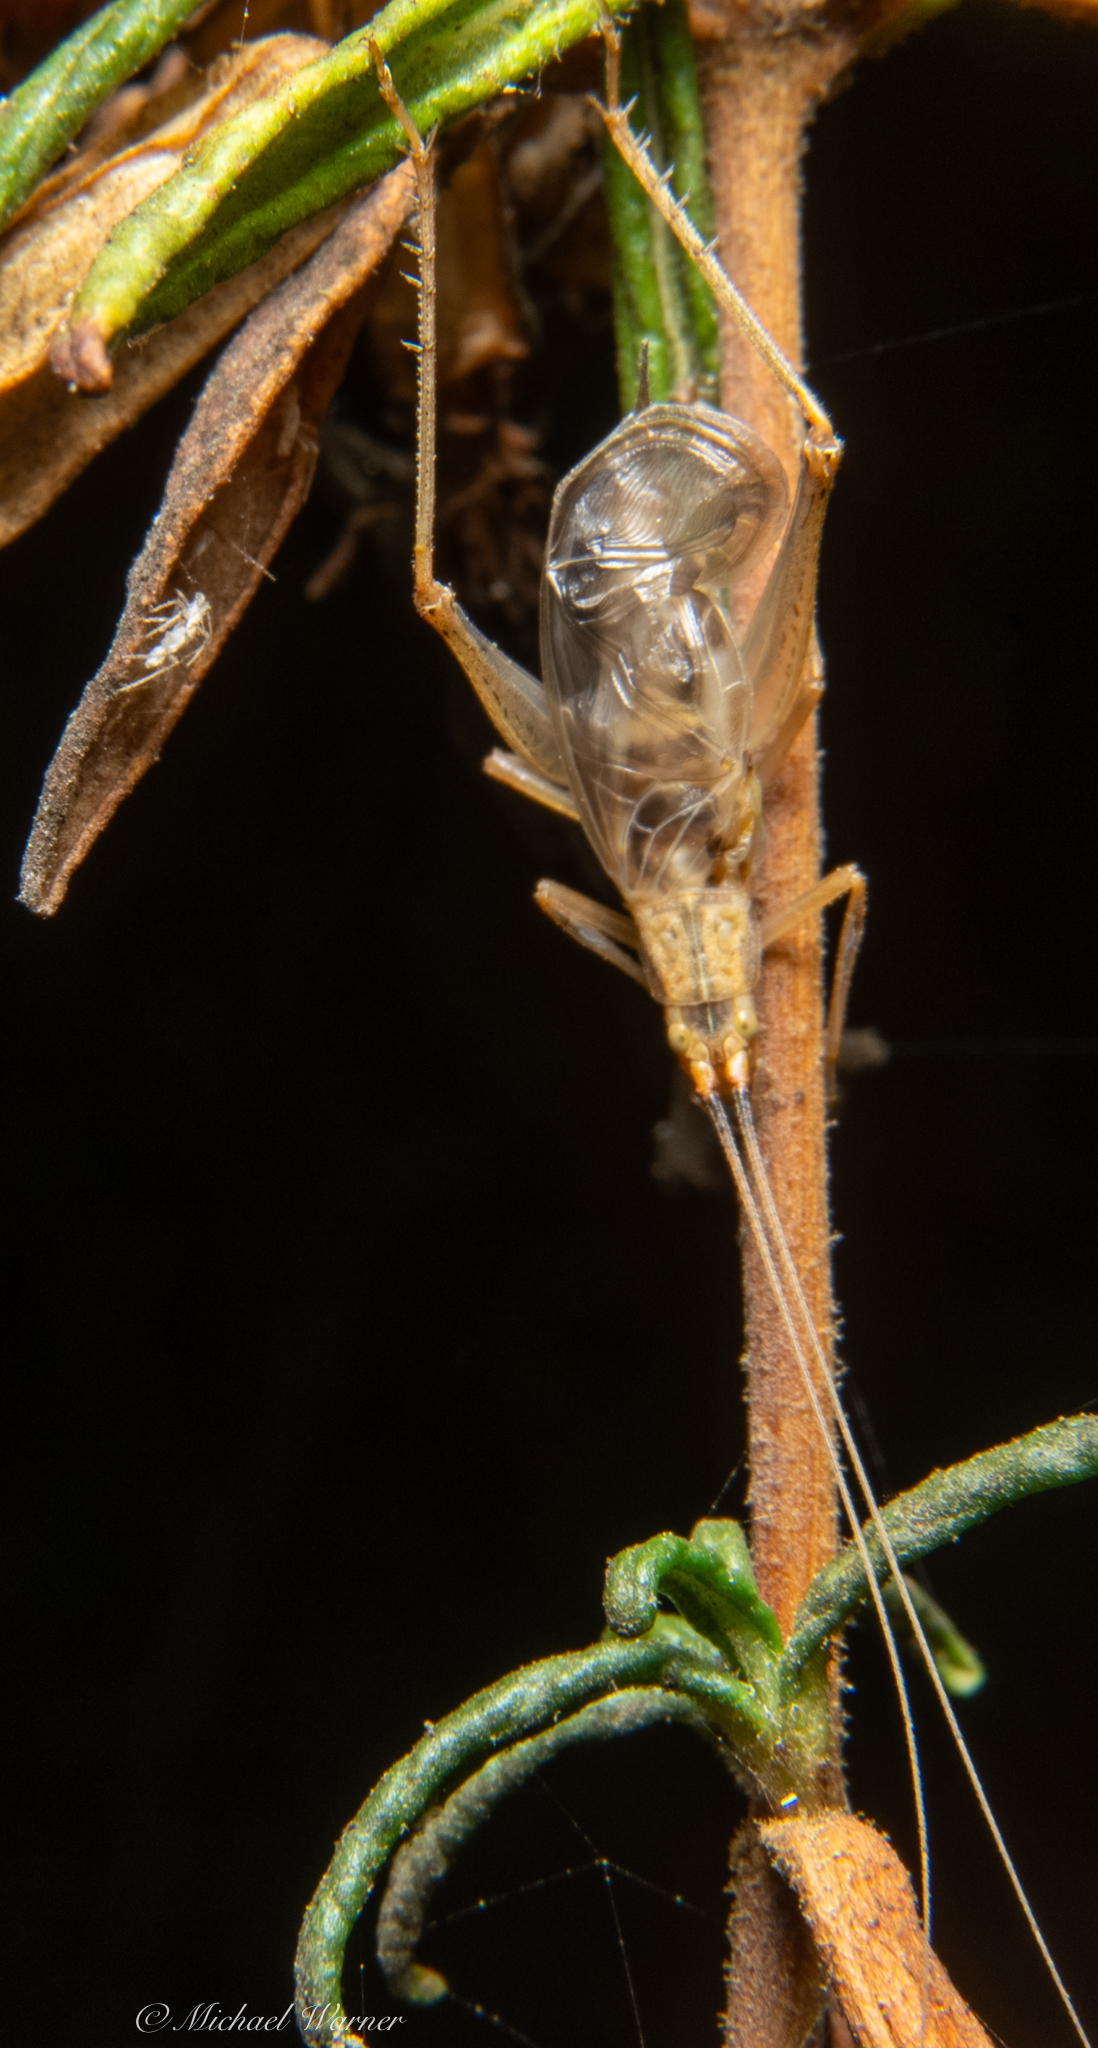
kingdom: Animalia
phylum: Arthropoda
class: Insecta
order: Orthoptera
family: Gryllidae
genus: Oecanthus
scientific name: Oecanthus californicus
